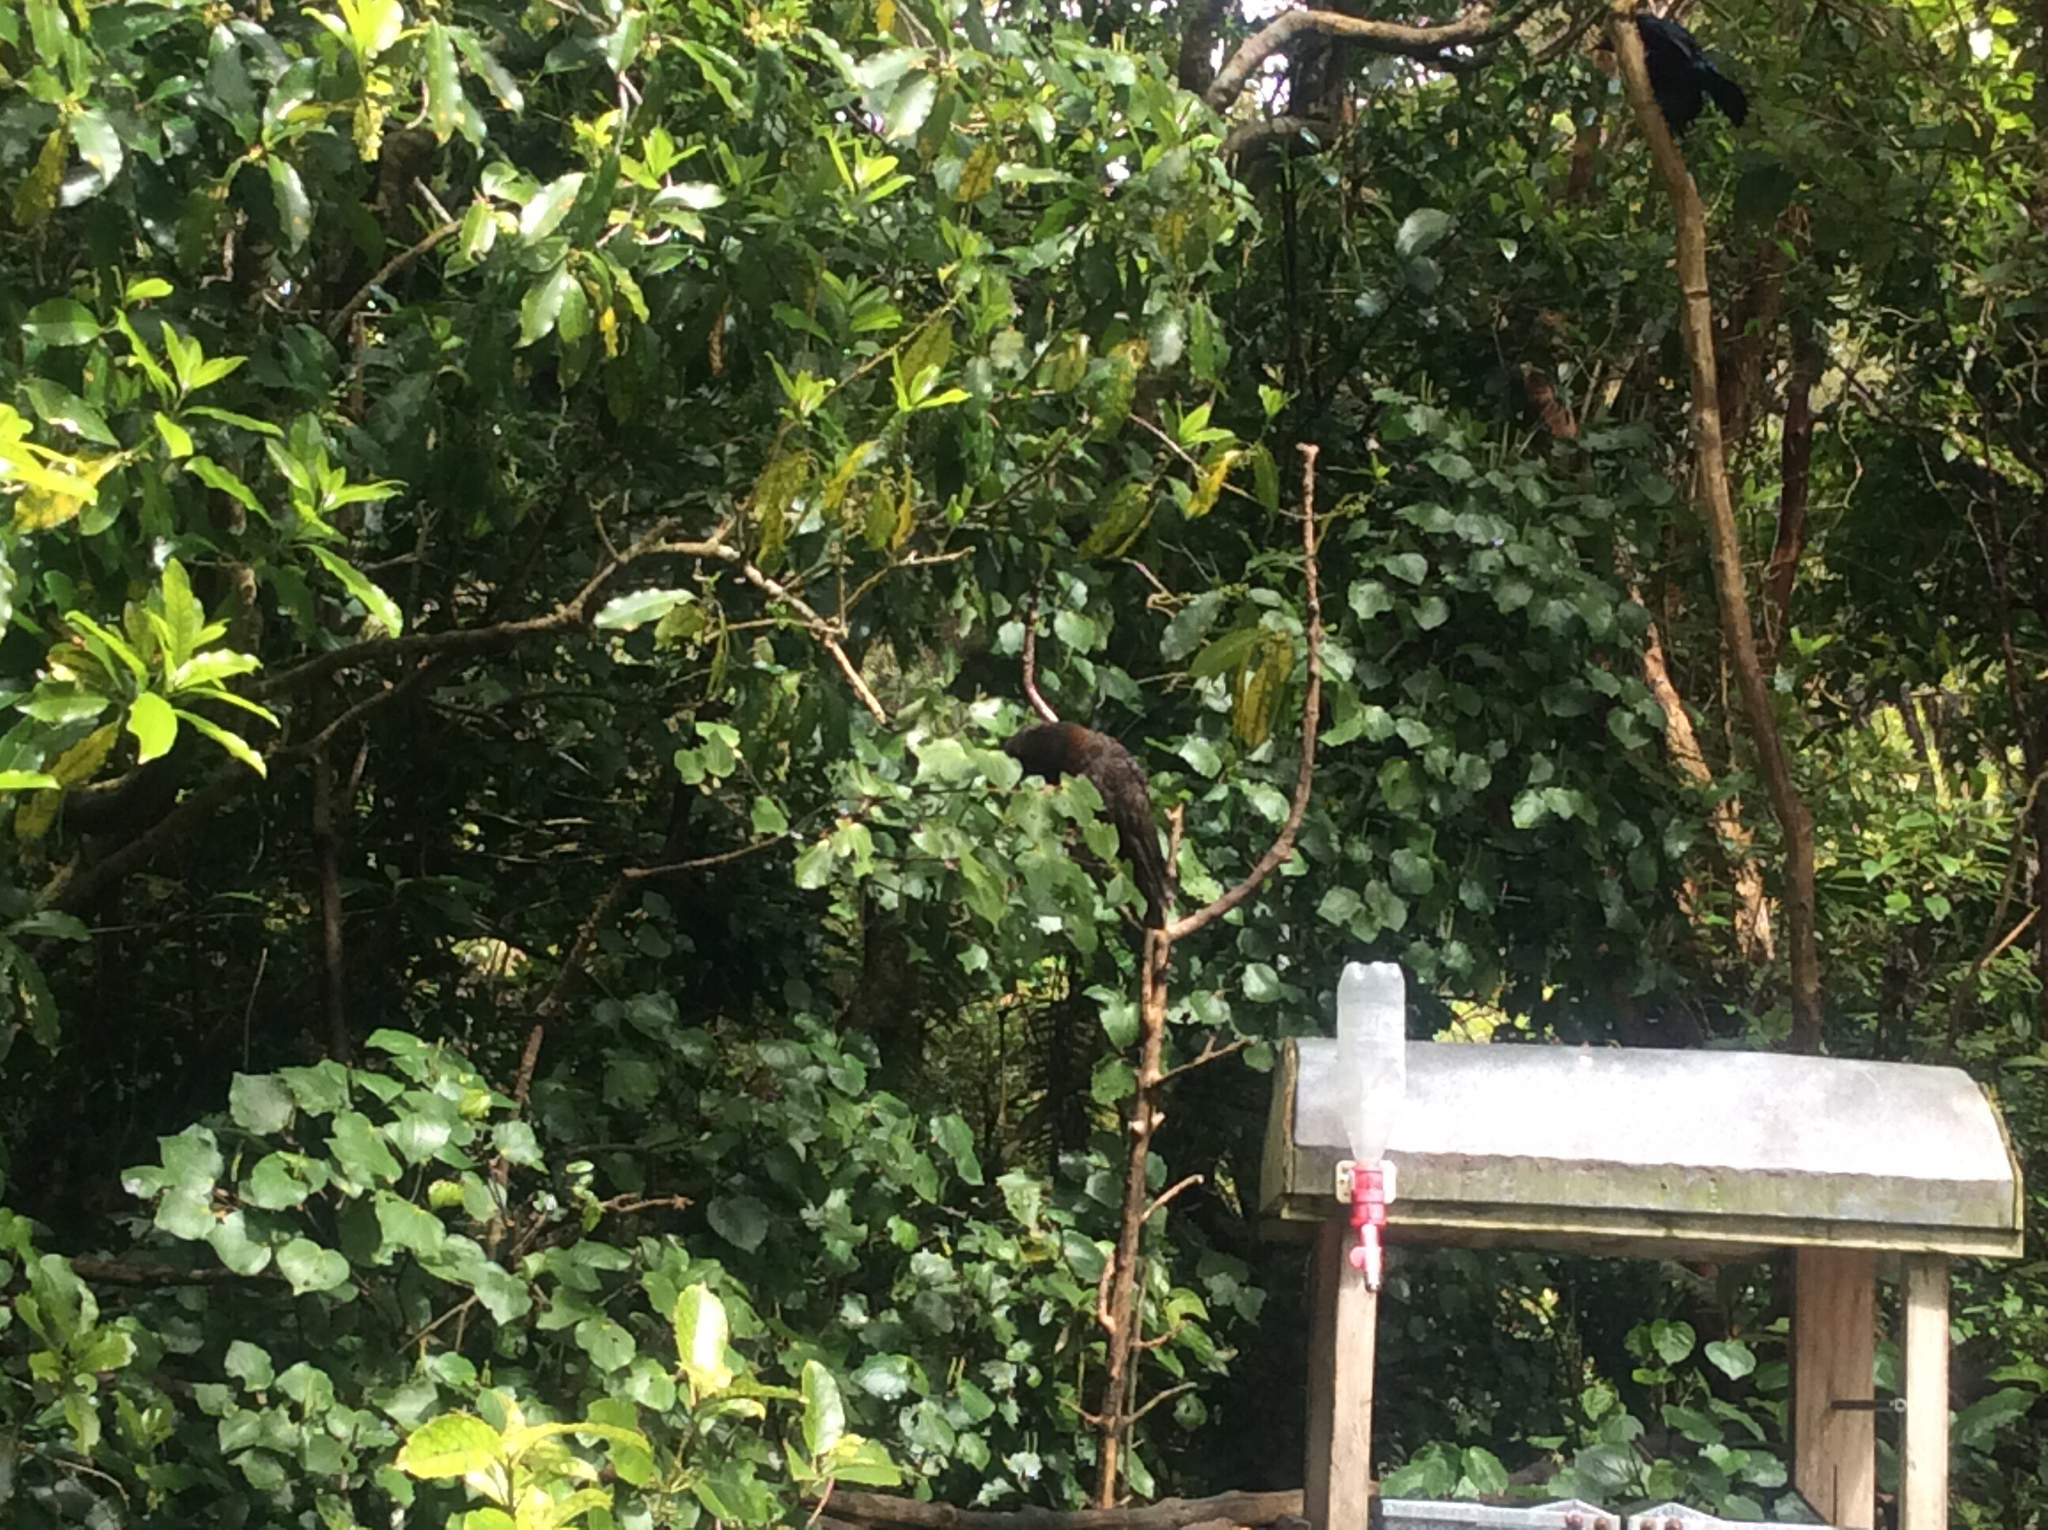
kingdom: Animalia
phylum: Chordata
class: Aves
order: Psittaciformes
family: Psittacidae
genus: Nestor
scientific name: Nestor meridionalis
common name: New zealand kaka
